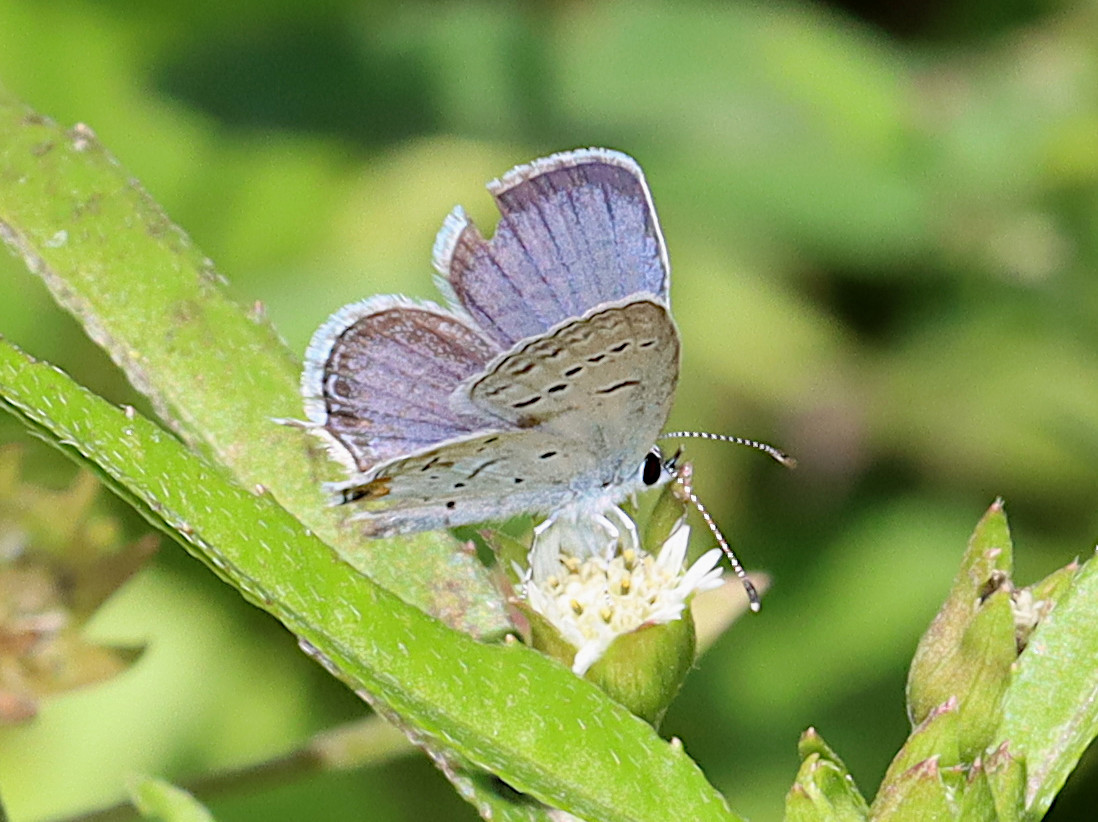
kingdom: Animalia
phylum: Arthropoda
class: Insecta
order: Lepidoptera
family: Lycaenidae
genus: Elkalyce
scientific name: Elkalyce comyntas
